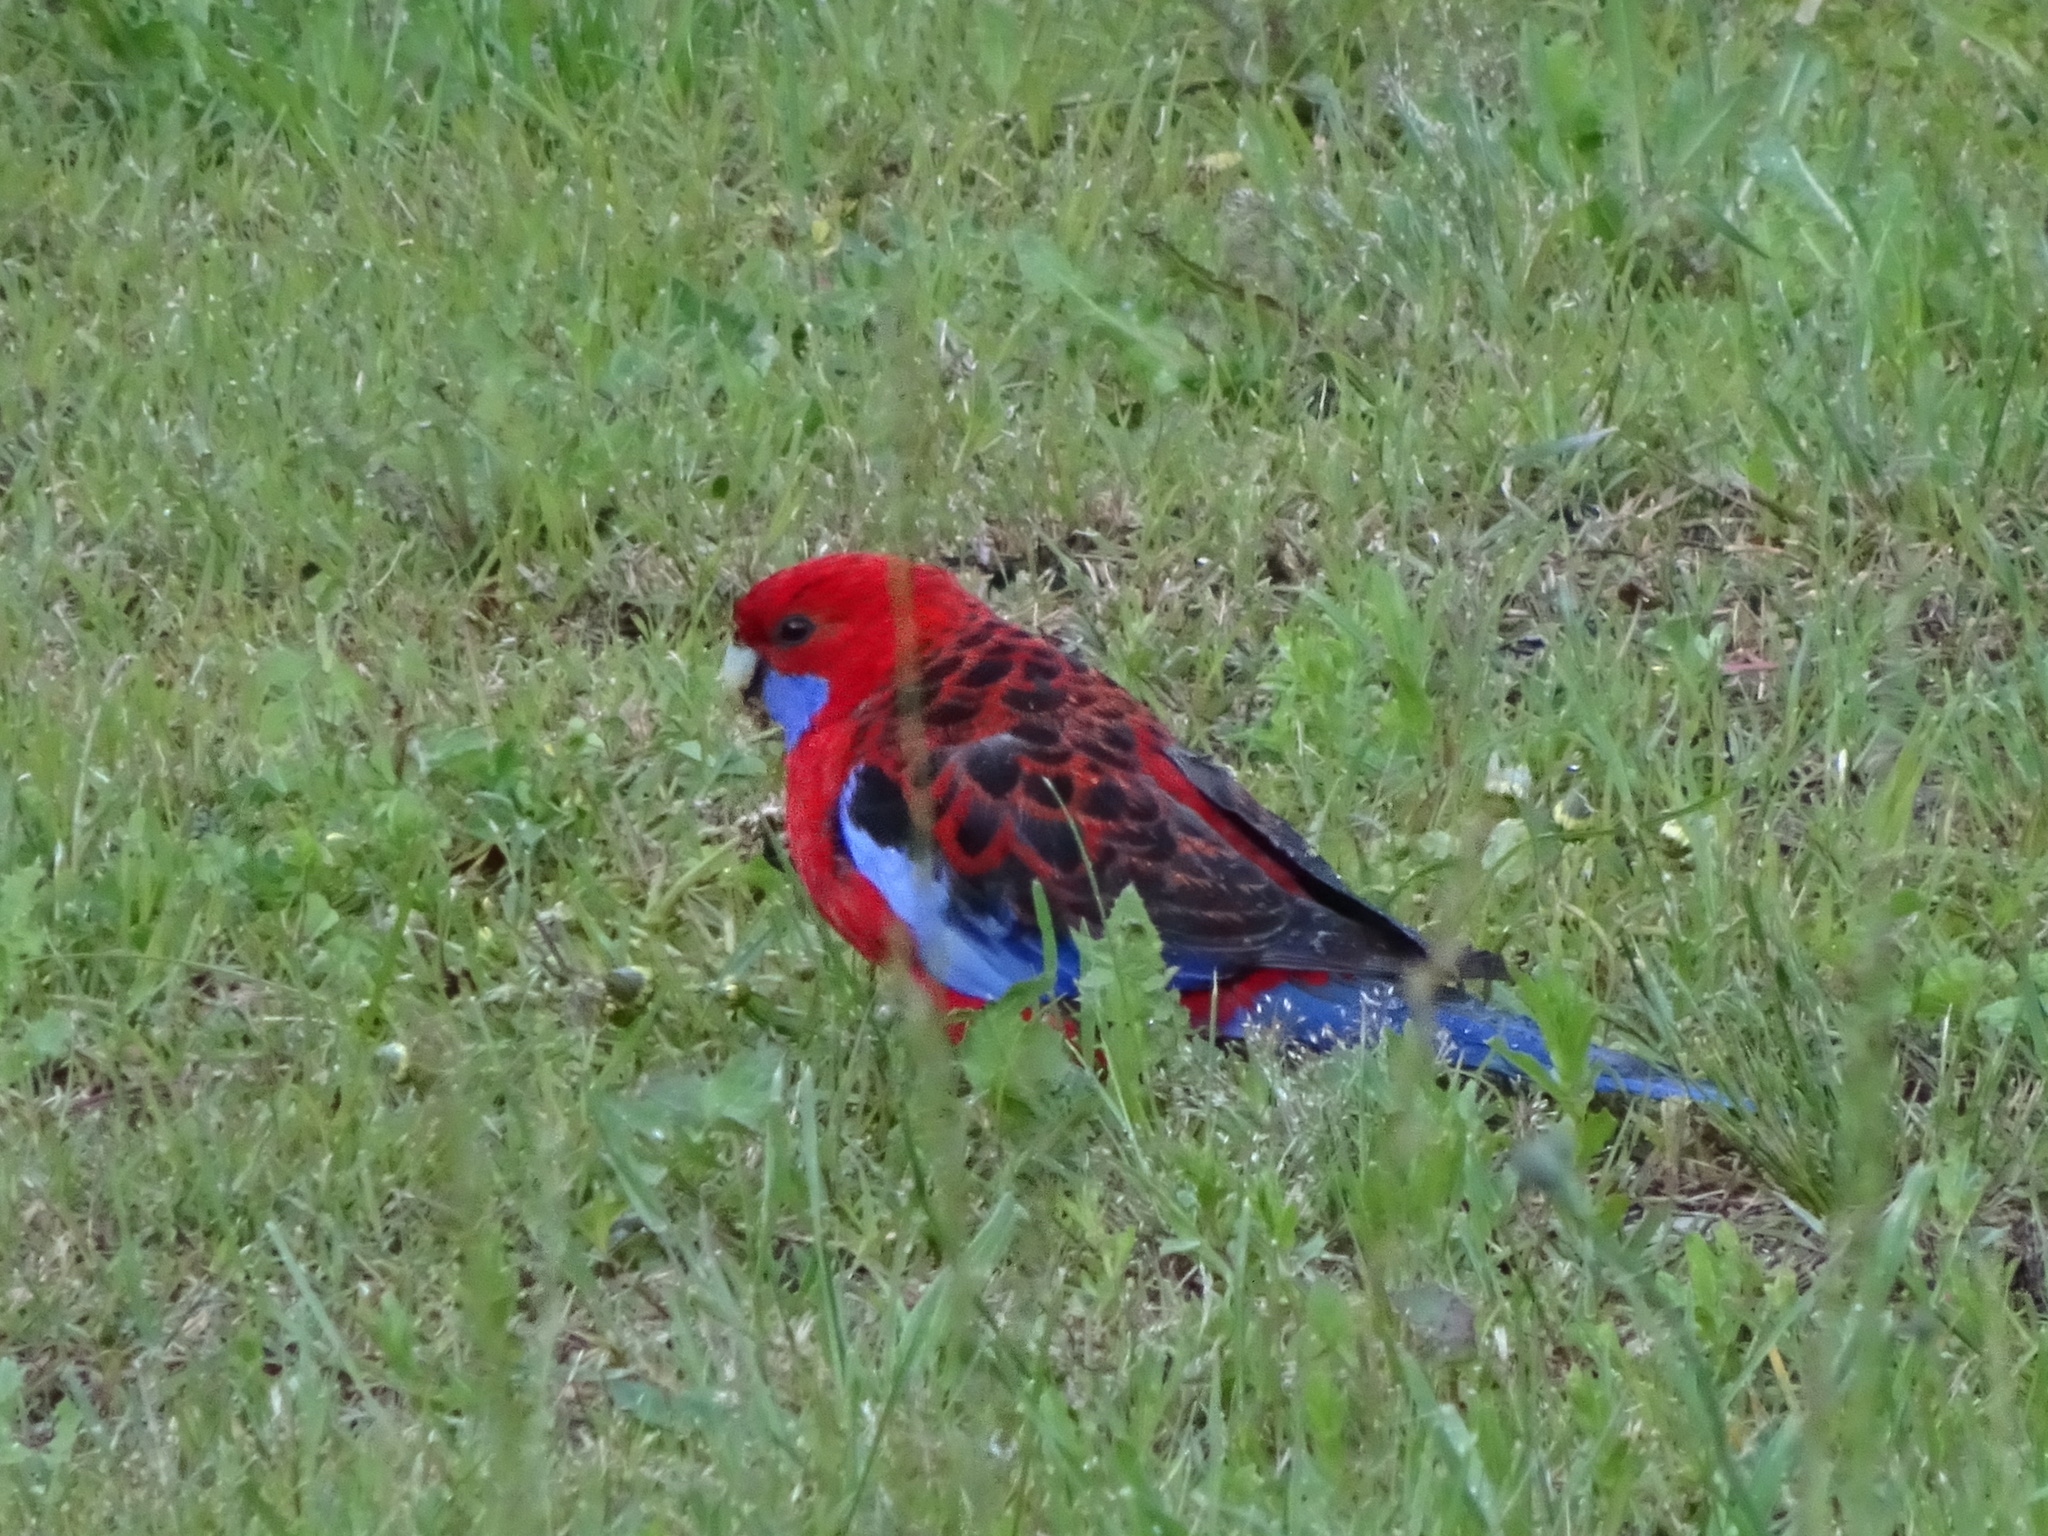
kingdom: Animalia
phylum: Chordata
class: Aves
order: Psittaciformes
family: Psittacidae
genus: Platycercus
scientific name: Platycercus elegans
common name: Crimson rosella
